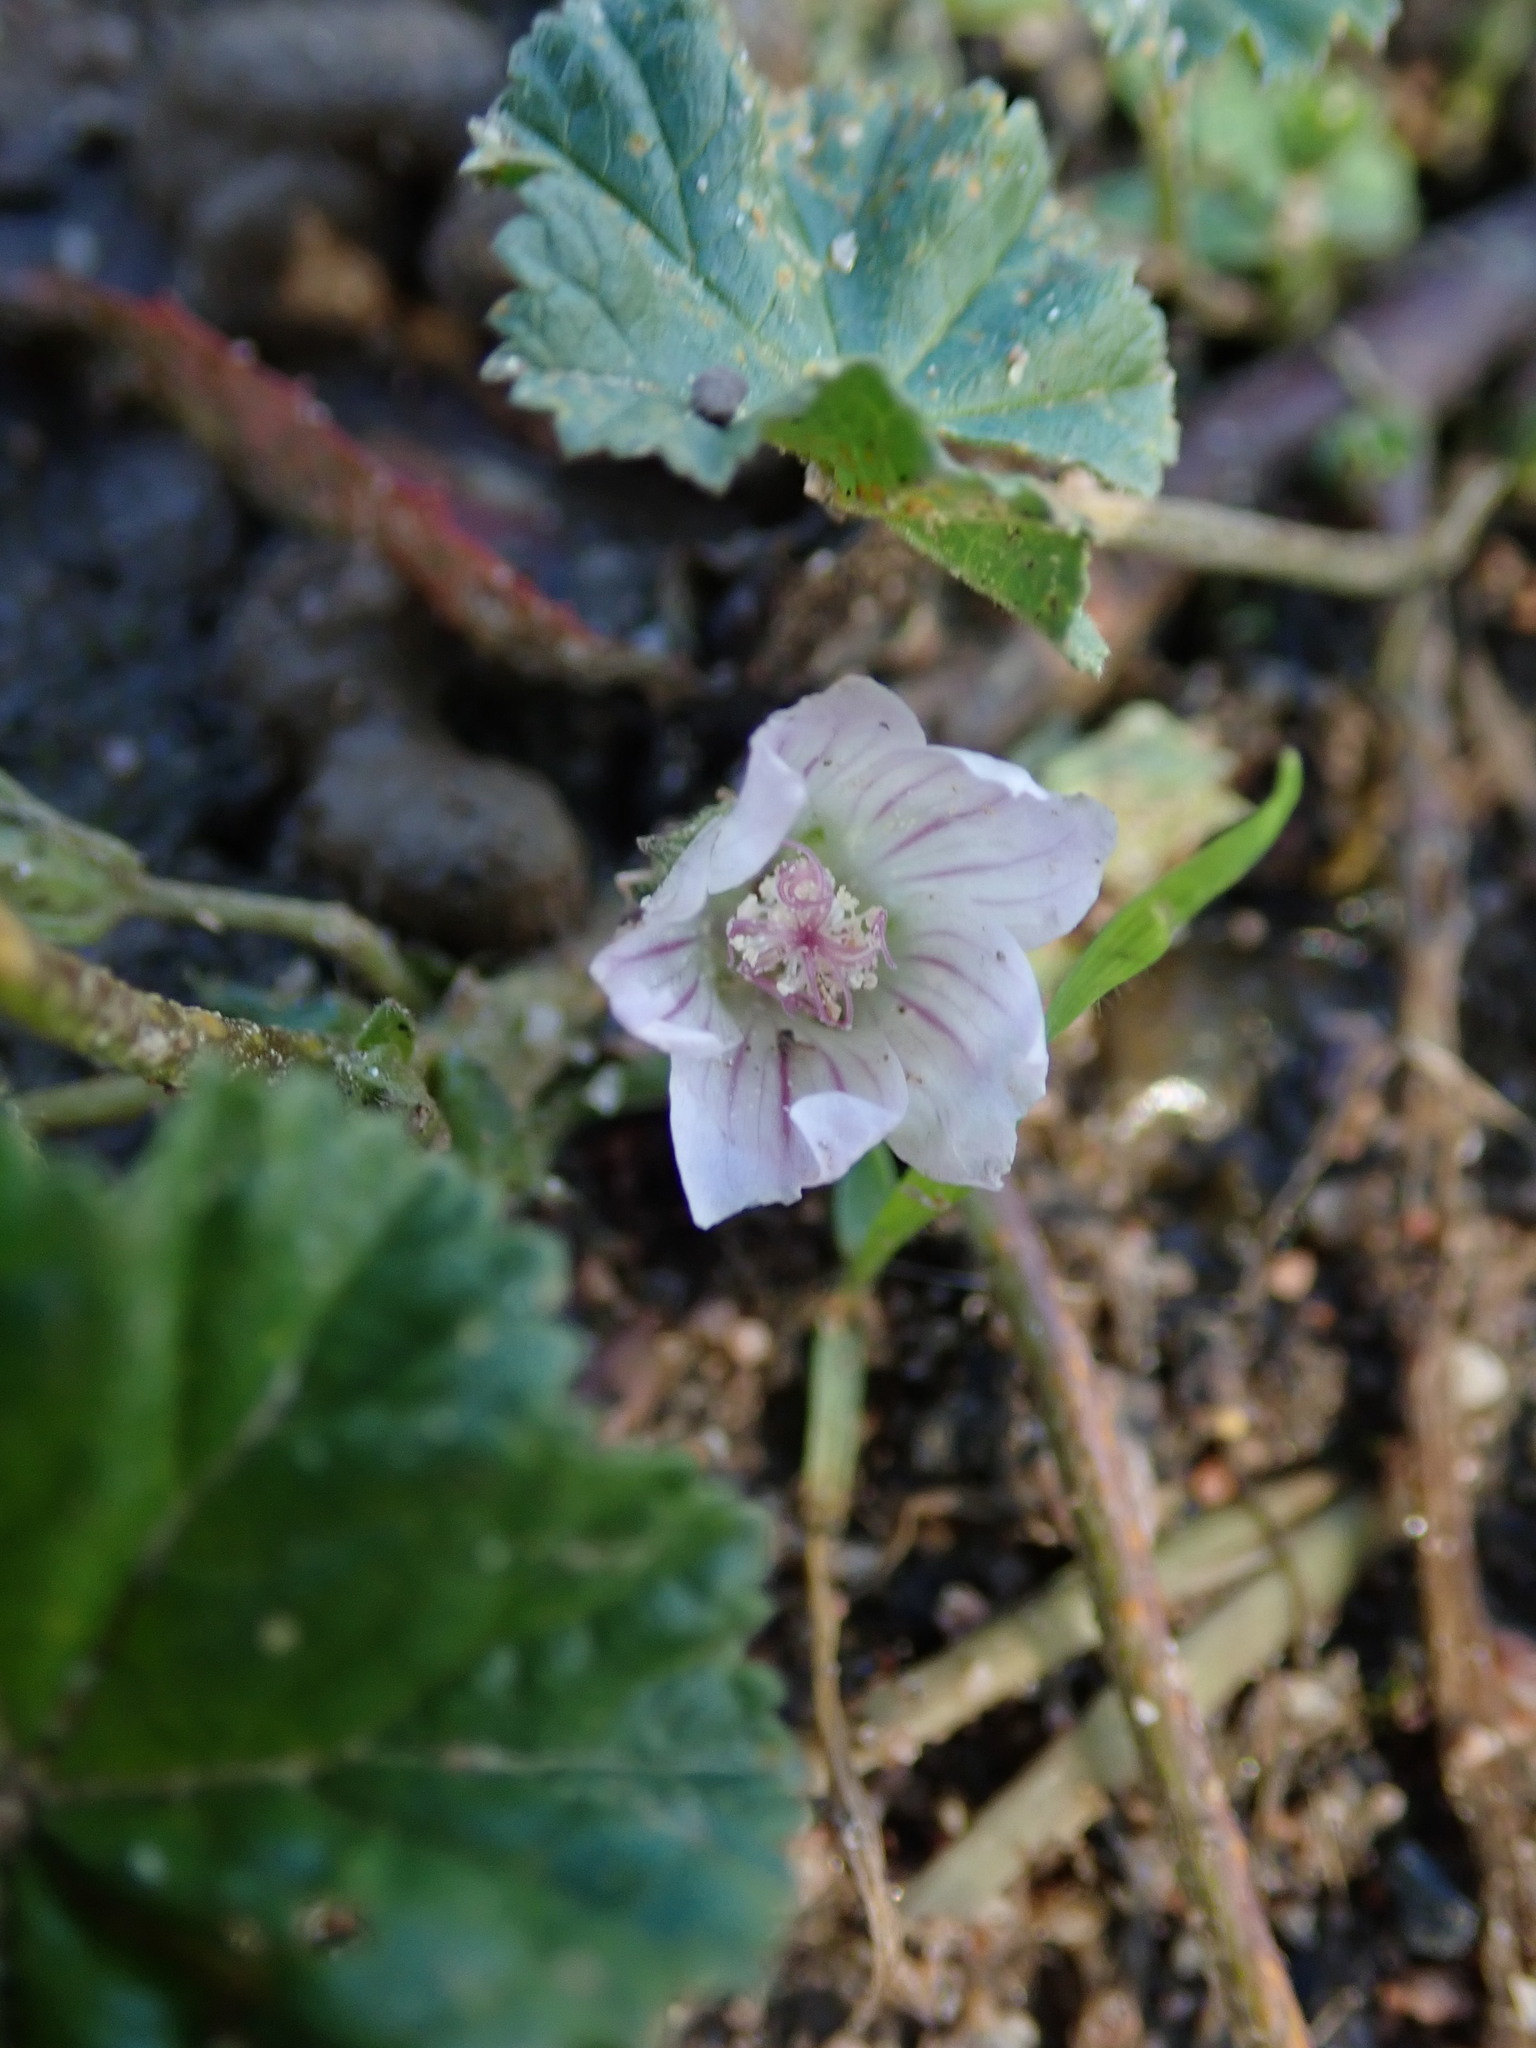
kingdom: Plantae
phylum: Tracheophyta
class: Magnoliopsida
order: Malvales
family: Malvaceae
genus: Malva
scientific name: Malva neglecta
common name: Common mallow
